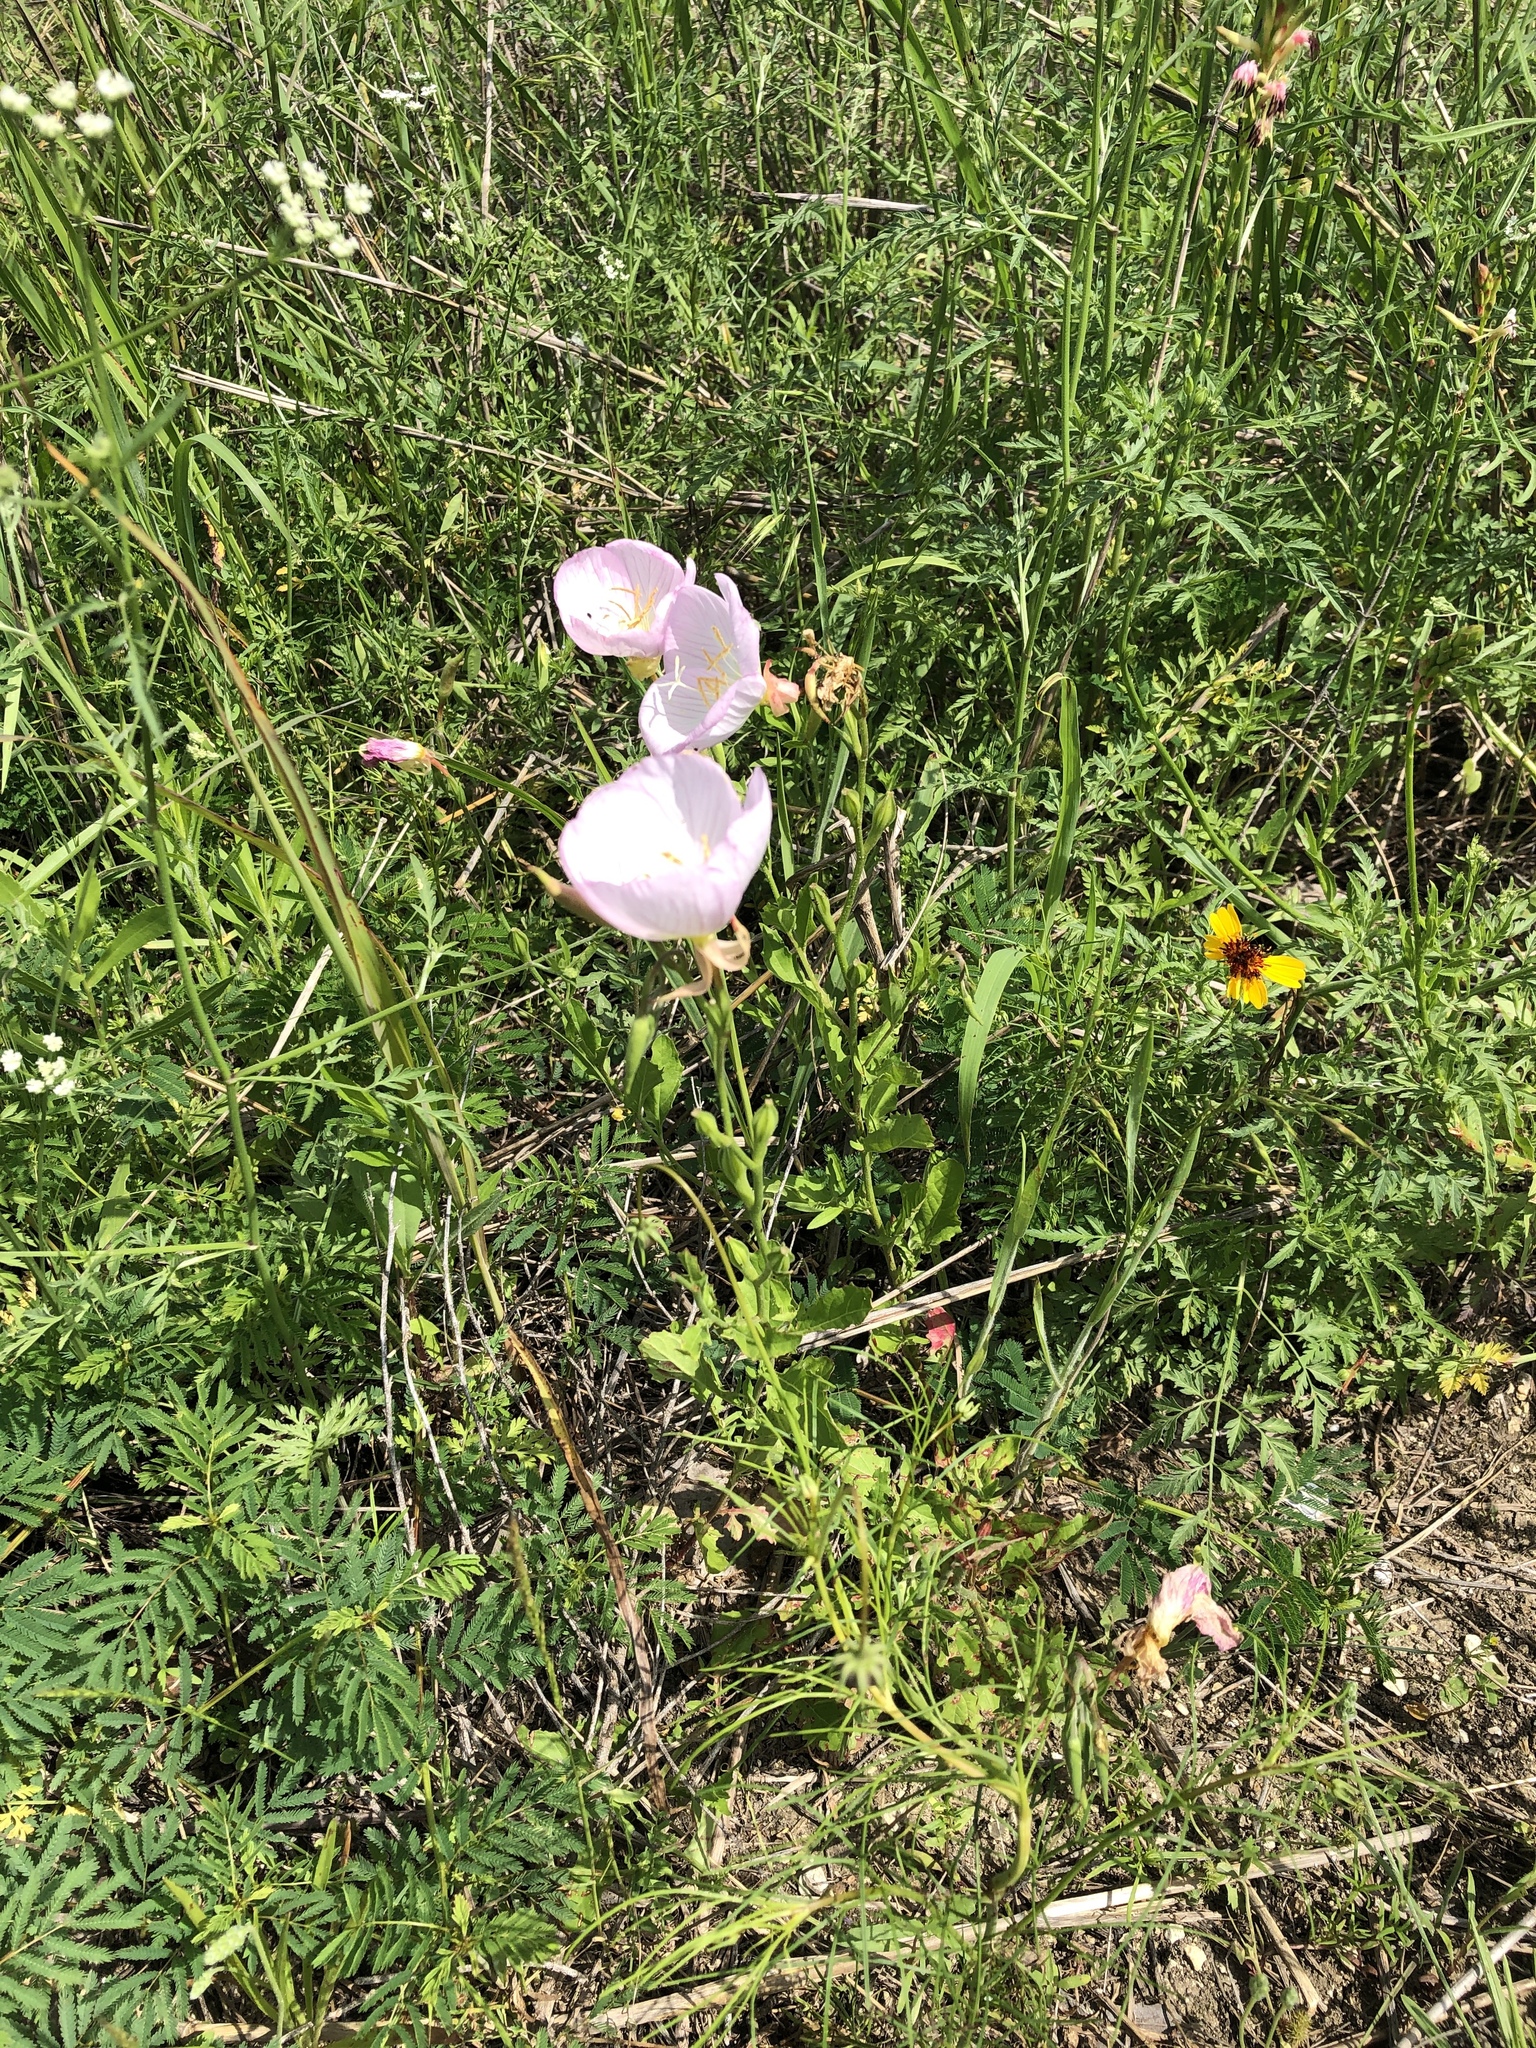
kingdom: Plantae
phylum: Tracheophyta
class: Magnoliopsida
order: Myrtales
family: Onagraceae
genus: Oenothera
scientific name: Oenothera speciosa
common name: White evening-primrose
